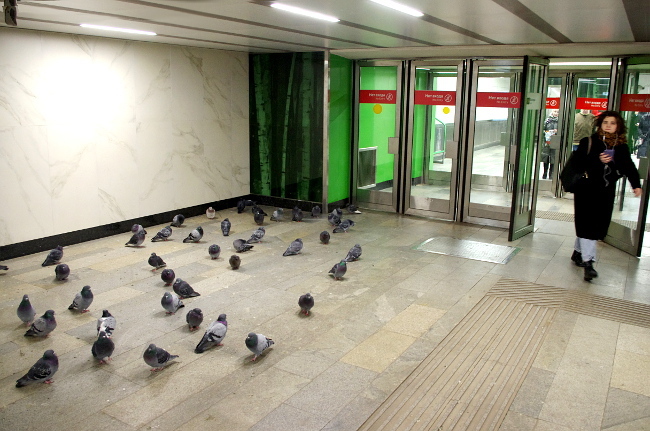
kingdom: Animalia
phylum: Chordata
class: Aves
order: Columbiformes
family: Columbidae
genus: Columba
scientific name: Columba livia
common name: Rock pigeon
